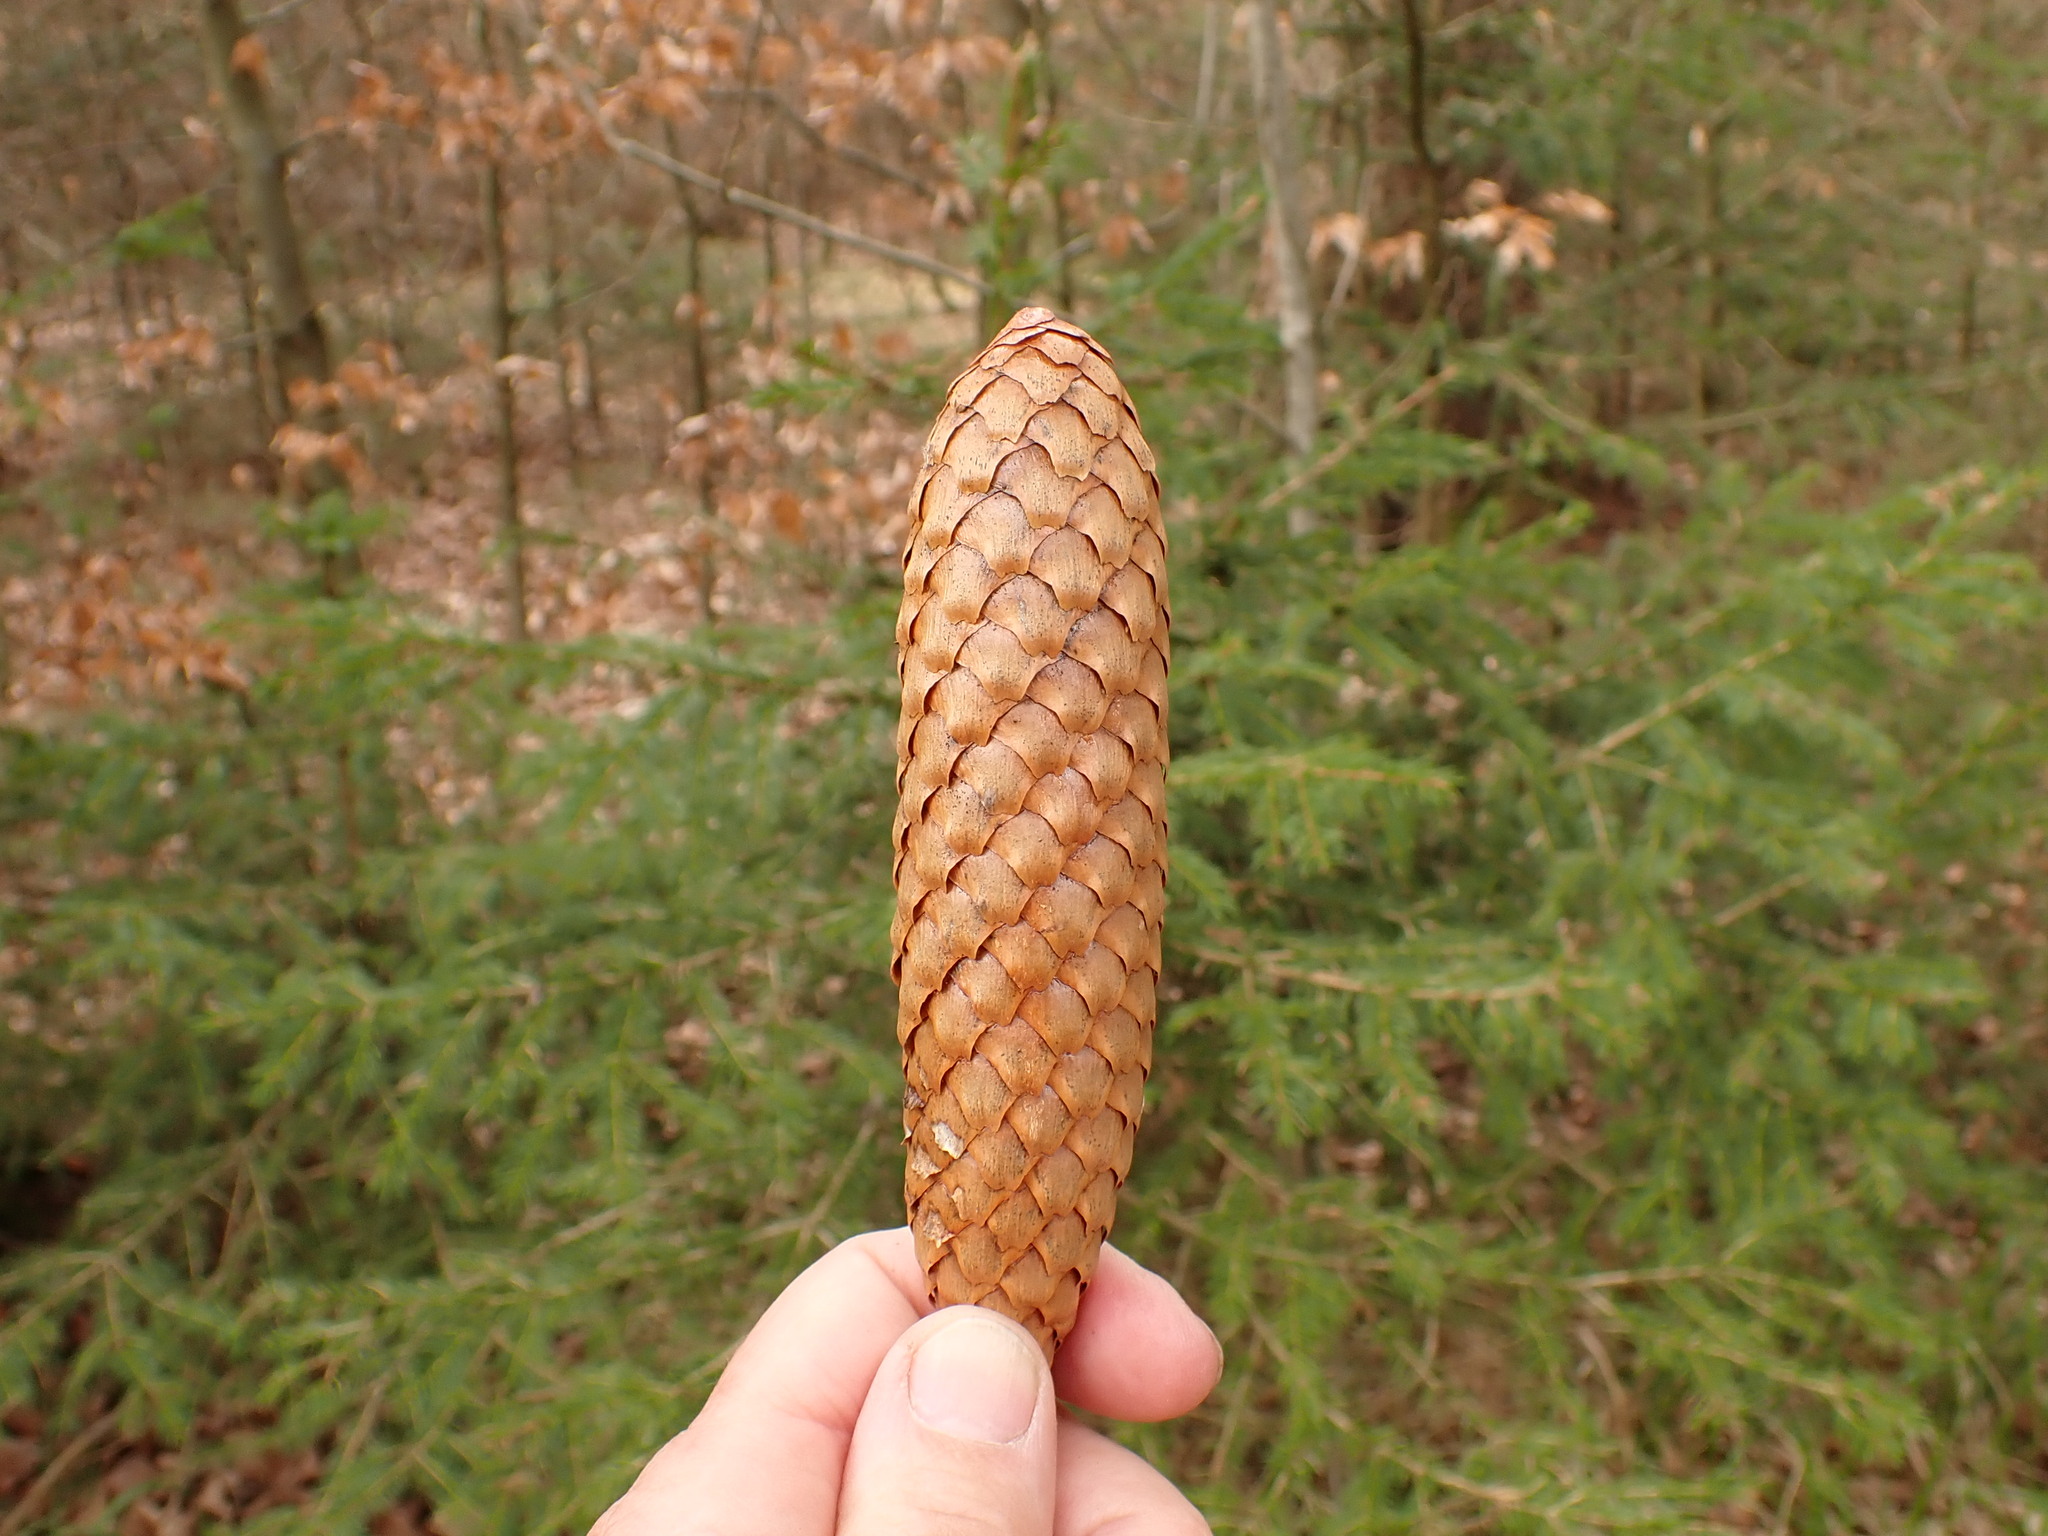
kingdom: Plantae
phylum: Tracheophyta
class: Pinopsida
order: Pinales
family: Pinaceae
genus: Picea
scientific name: Picea abies
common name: Norway spruce
